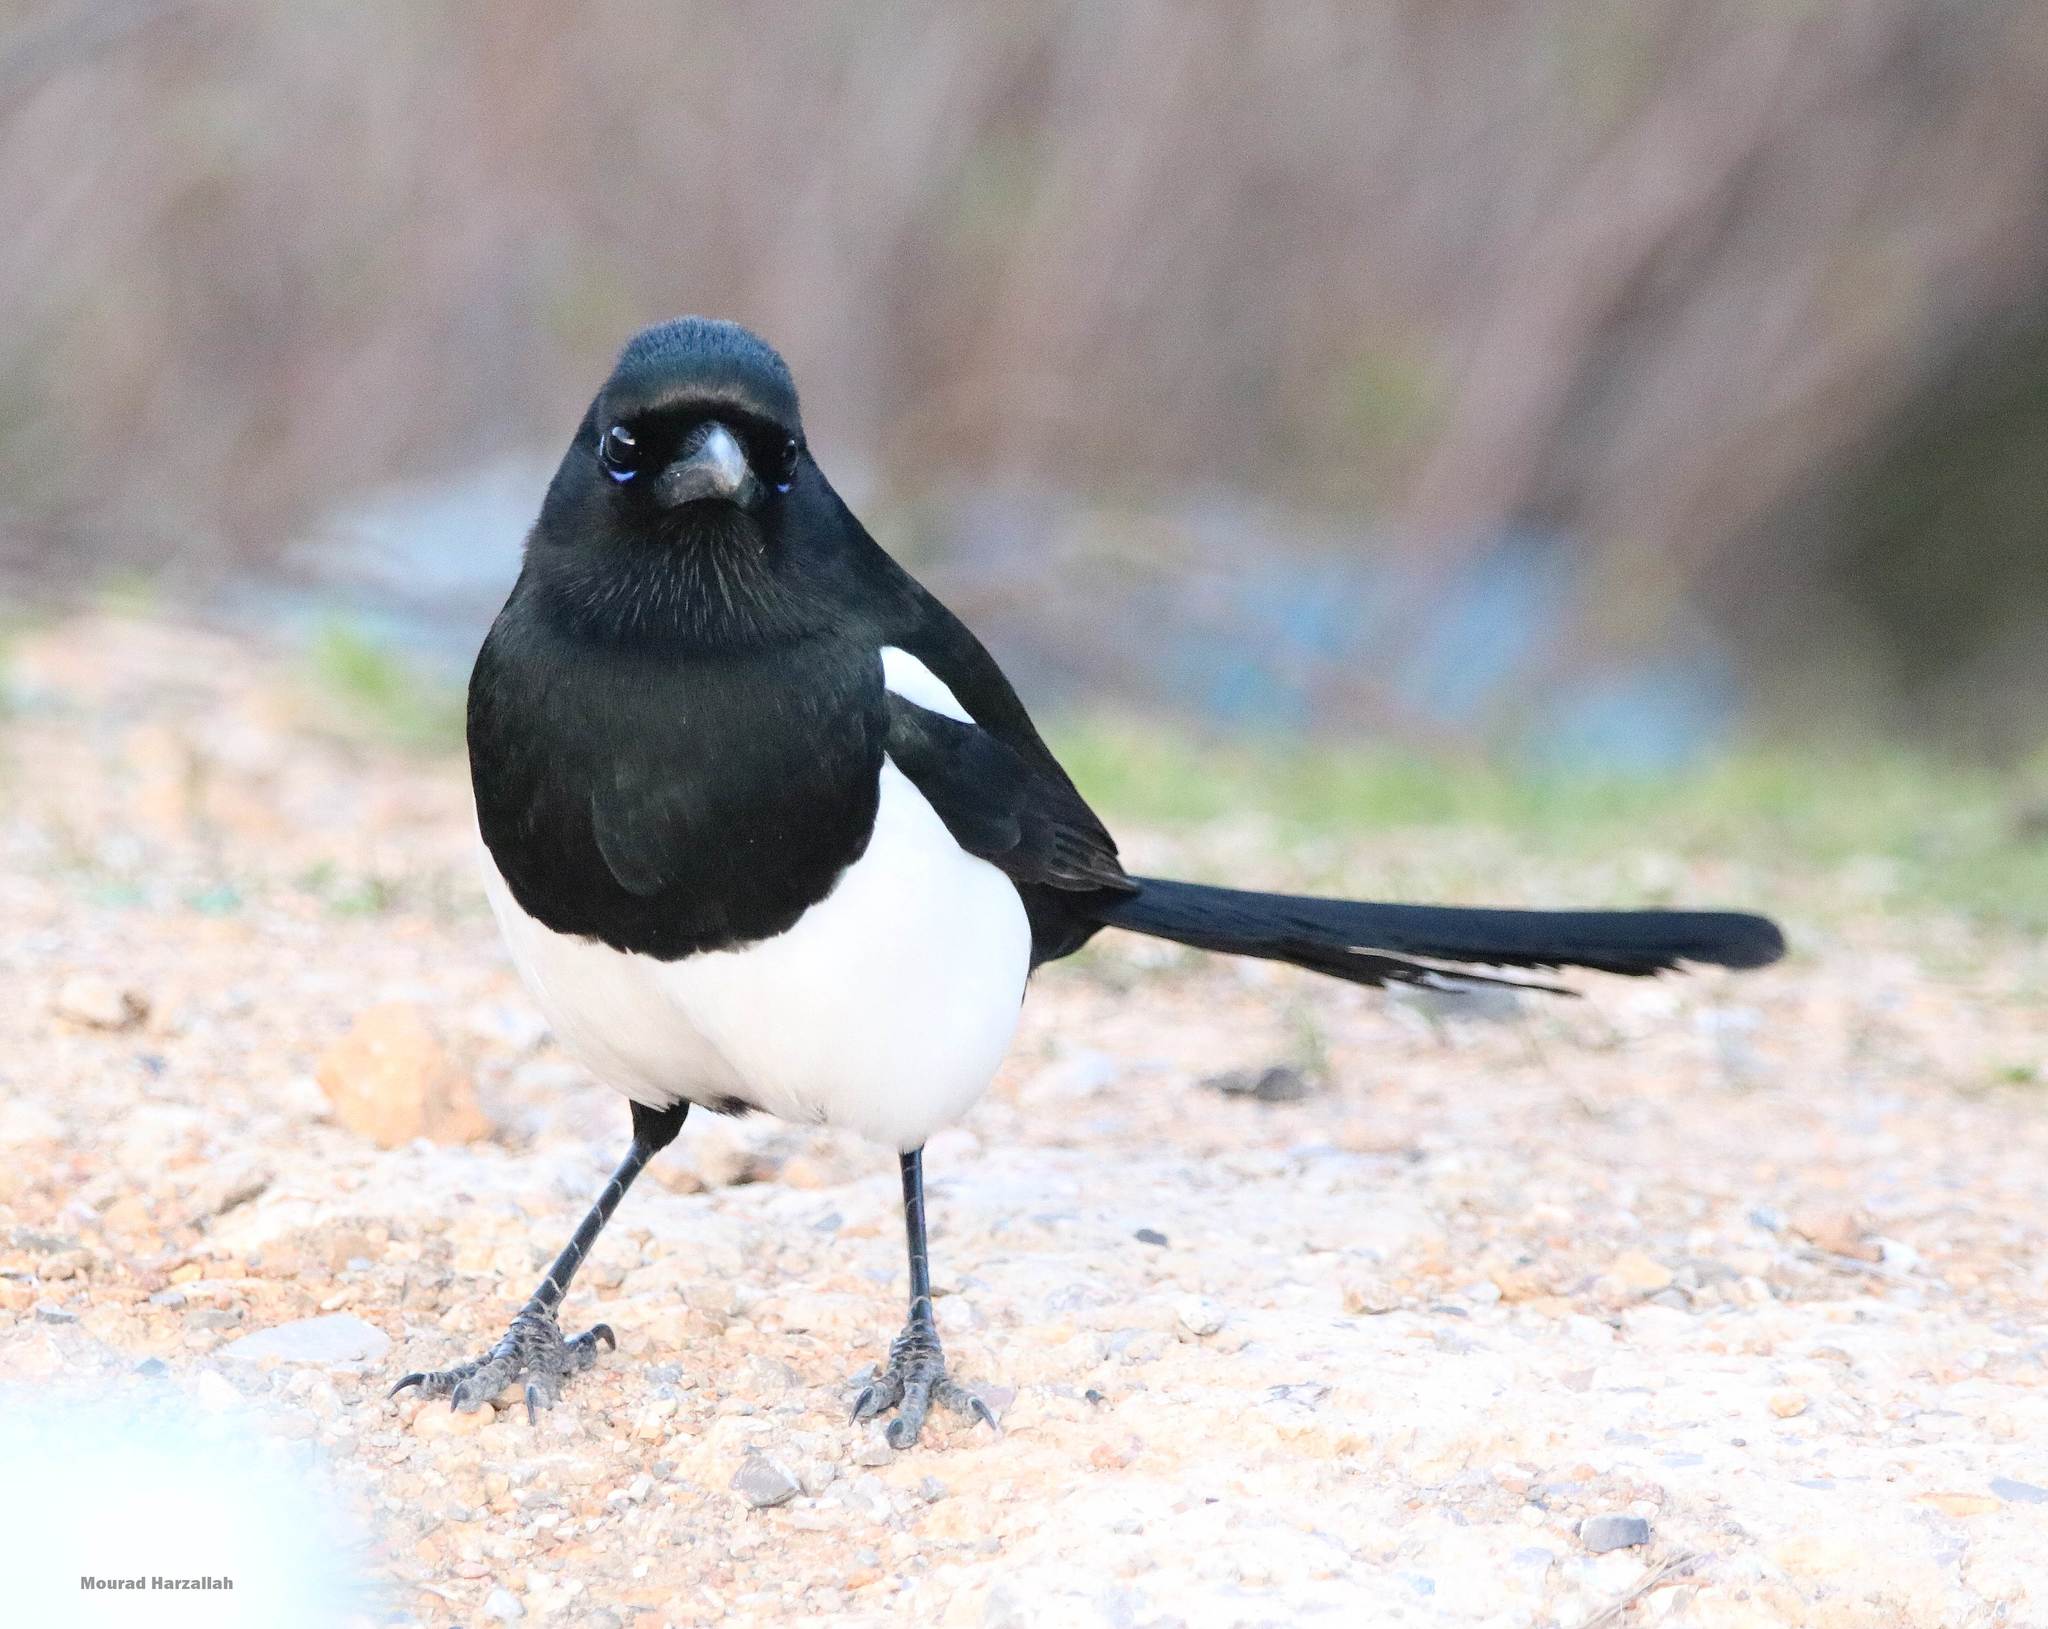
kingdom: Animalia
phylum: Chordata
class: Aves
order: Passeriformes
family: Corvidae
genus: Pica
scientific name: Pica mauritanica
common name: Maghreb magpie
